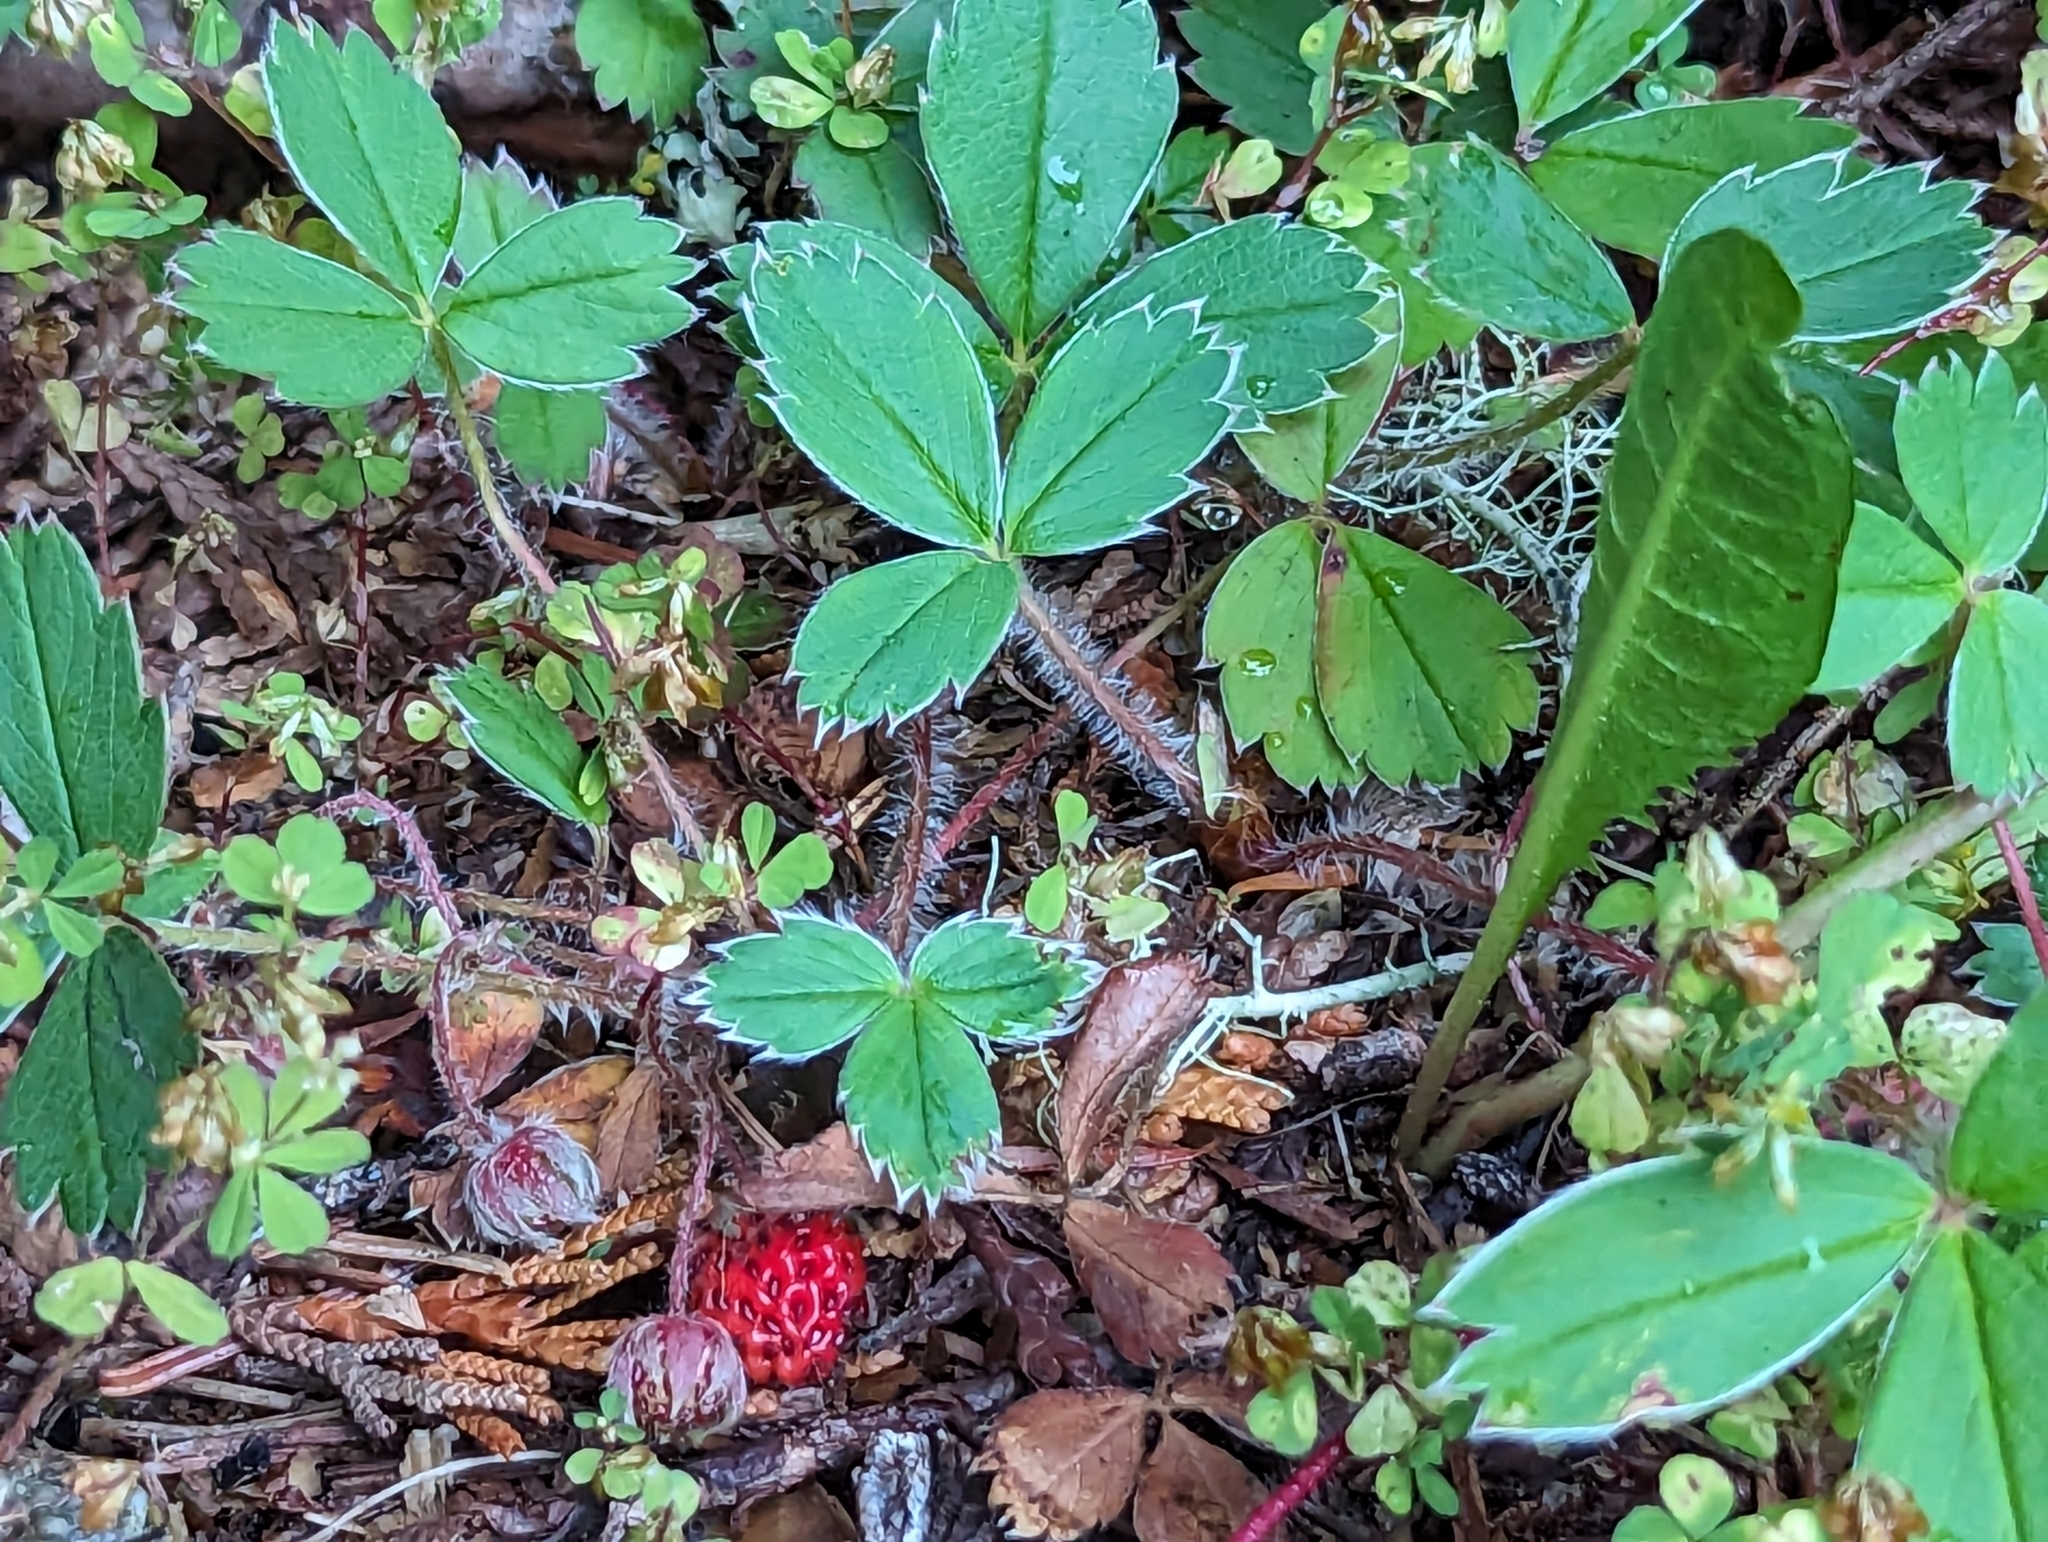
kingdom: Plantae
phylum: Tracheophyta
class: Magnoliopsida
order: Rosales
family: Rosaceae
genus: Fragaria
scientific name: Fragaria virginiana
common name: Thickleaved wild strawberry
